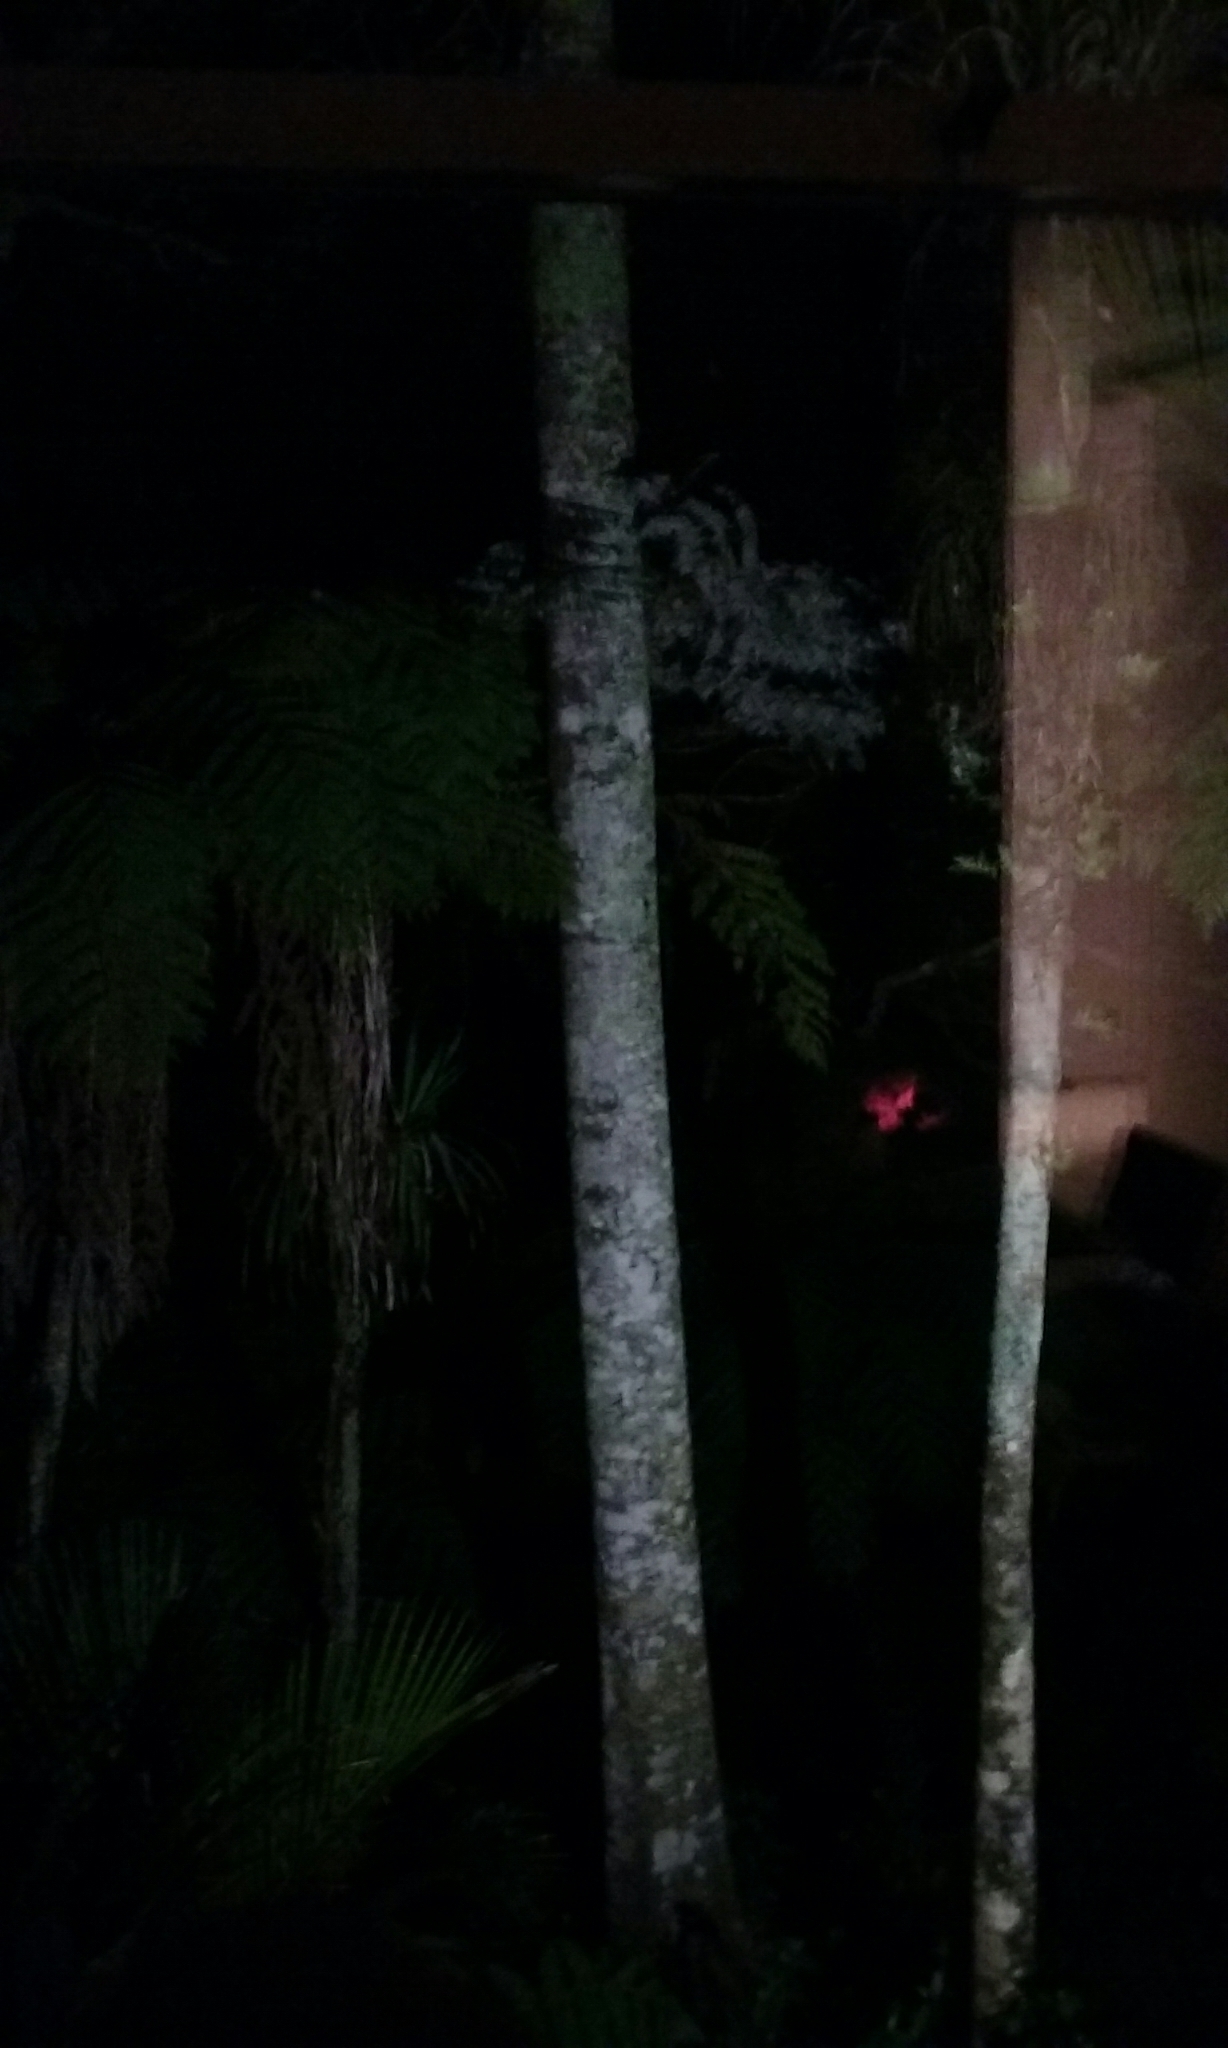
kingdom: Plantae
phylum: Tracheophyta
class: Pinopsida
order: Pinales
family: Podocarpaceae
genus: Dacrycarpus
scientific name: Dacrycarpus dacrydioides
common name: White pine
